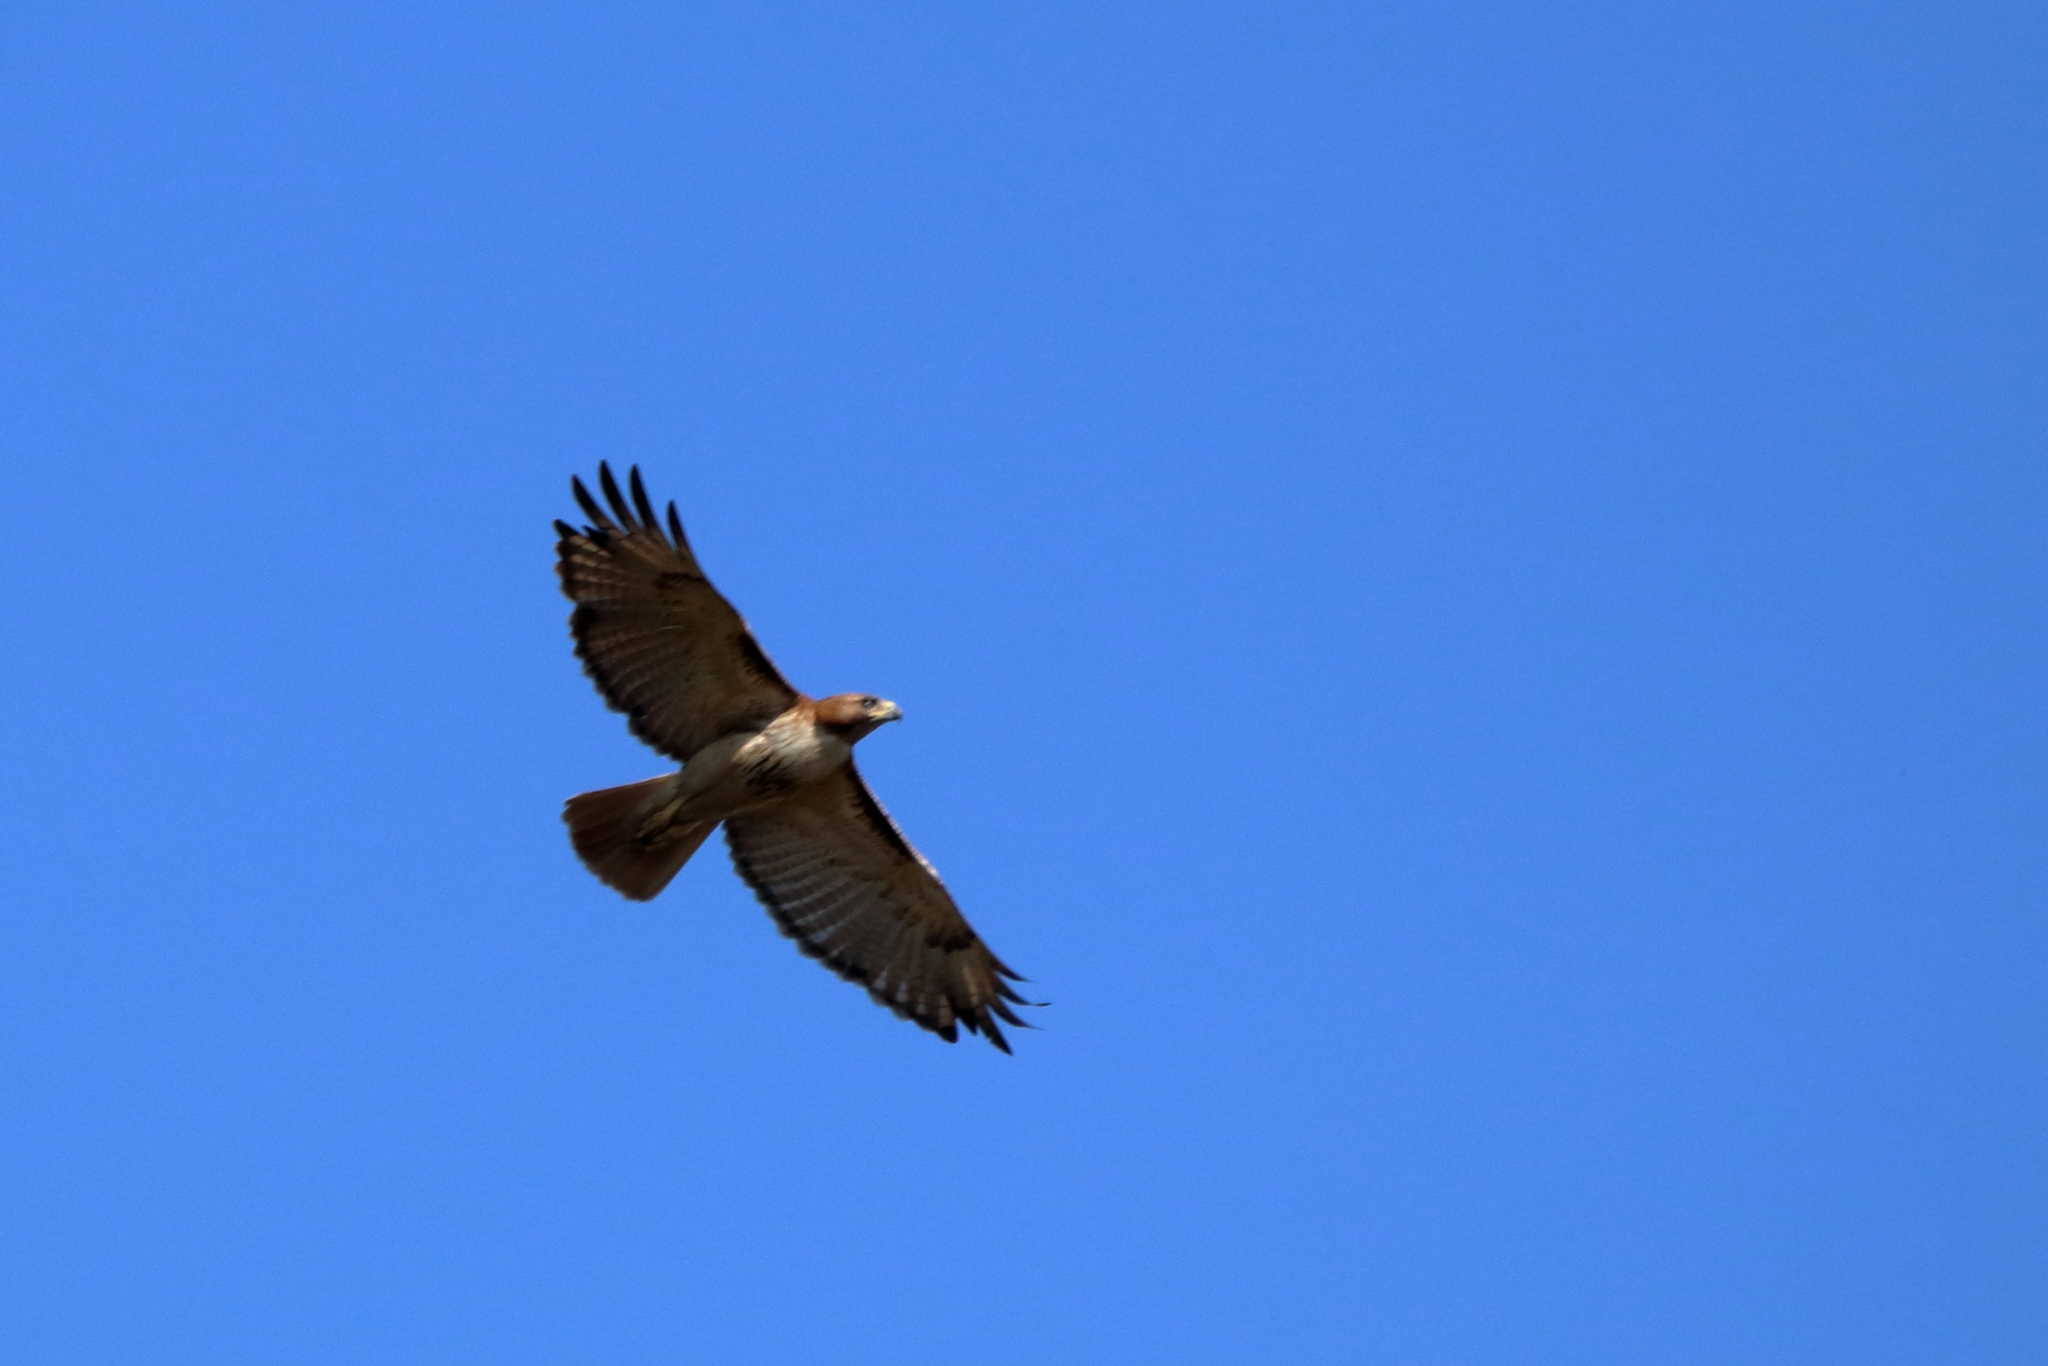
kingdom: Animalia
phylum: Chordata
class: Aves
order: Accipitriformes
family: Accipitridae
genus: Buteo
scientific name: Buteo jamaicensis
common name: Red-tailed hawk
